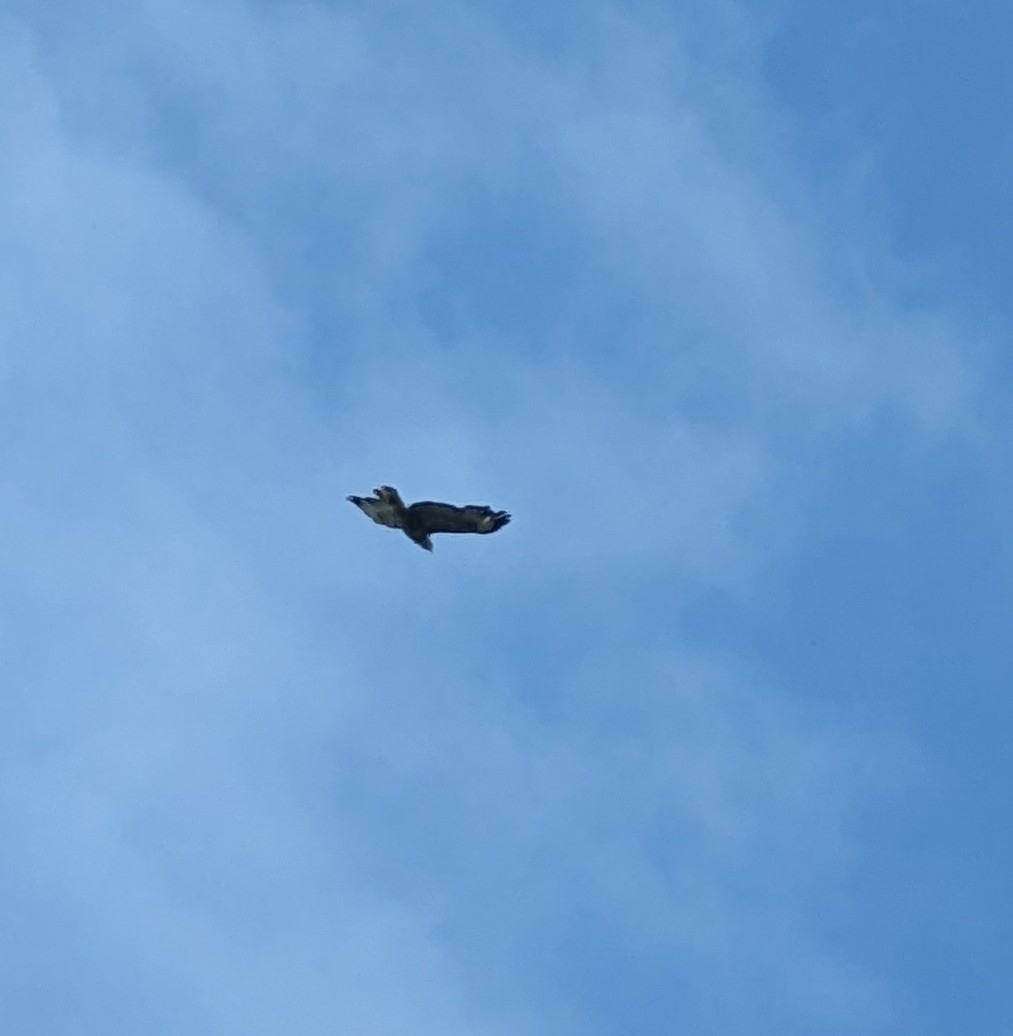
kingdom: Animalia
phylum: Chordata
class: Aves
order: Accipitriformes
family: Accipitridae
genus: Buteo
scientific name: Buteo buteo
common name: Common buzzard
